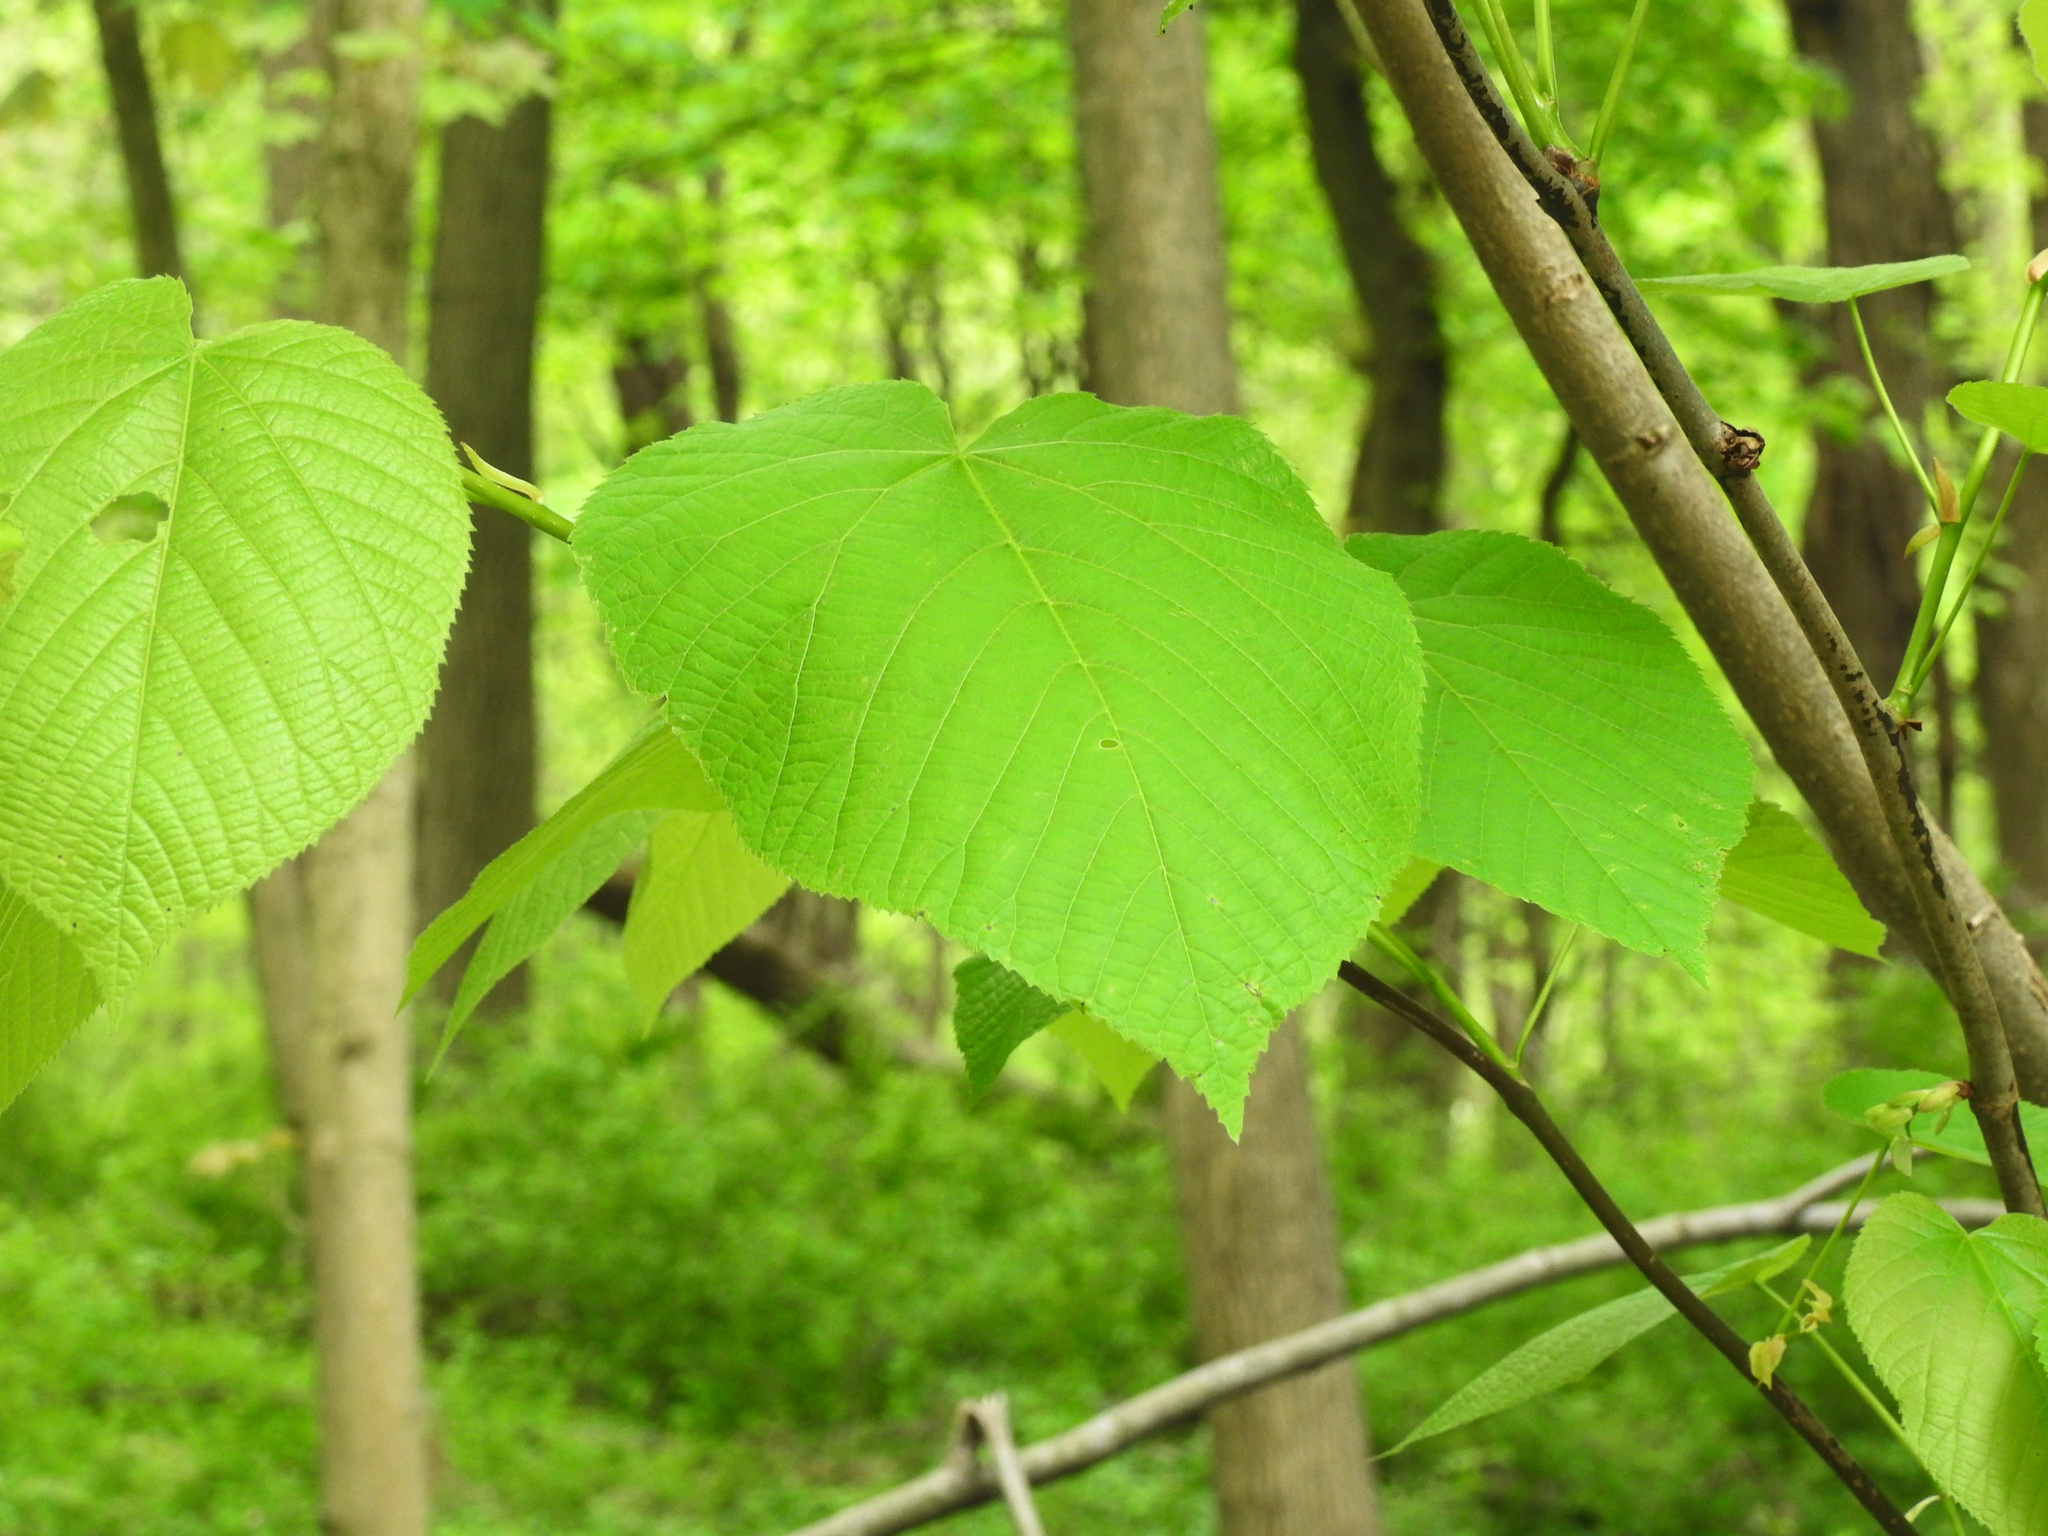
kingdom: Plantae
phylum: Tracheophyta
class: Magnoliopsida
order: Malvales
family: Malvaceae
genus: Tilia
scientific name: Tilia americana
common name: Basswood
